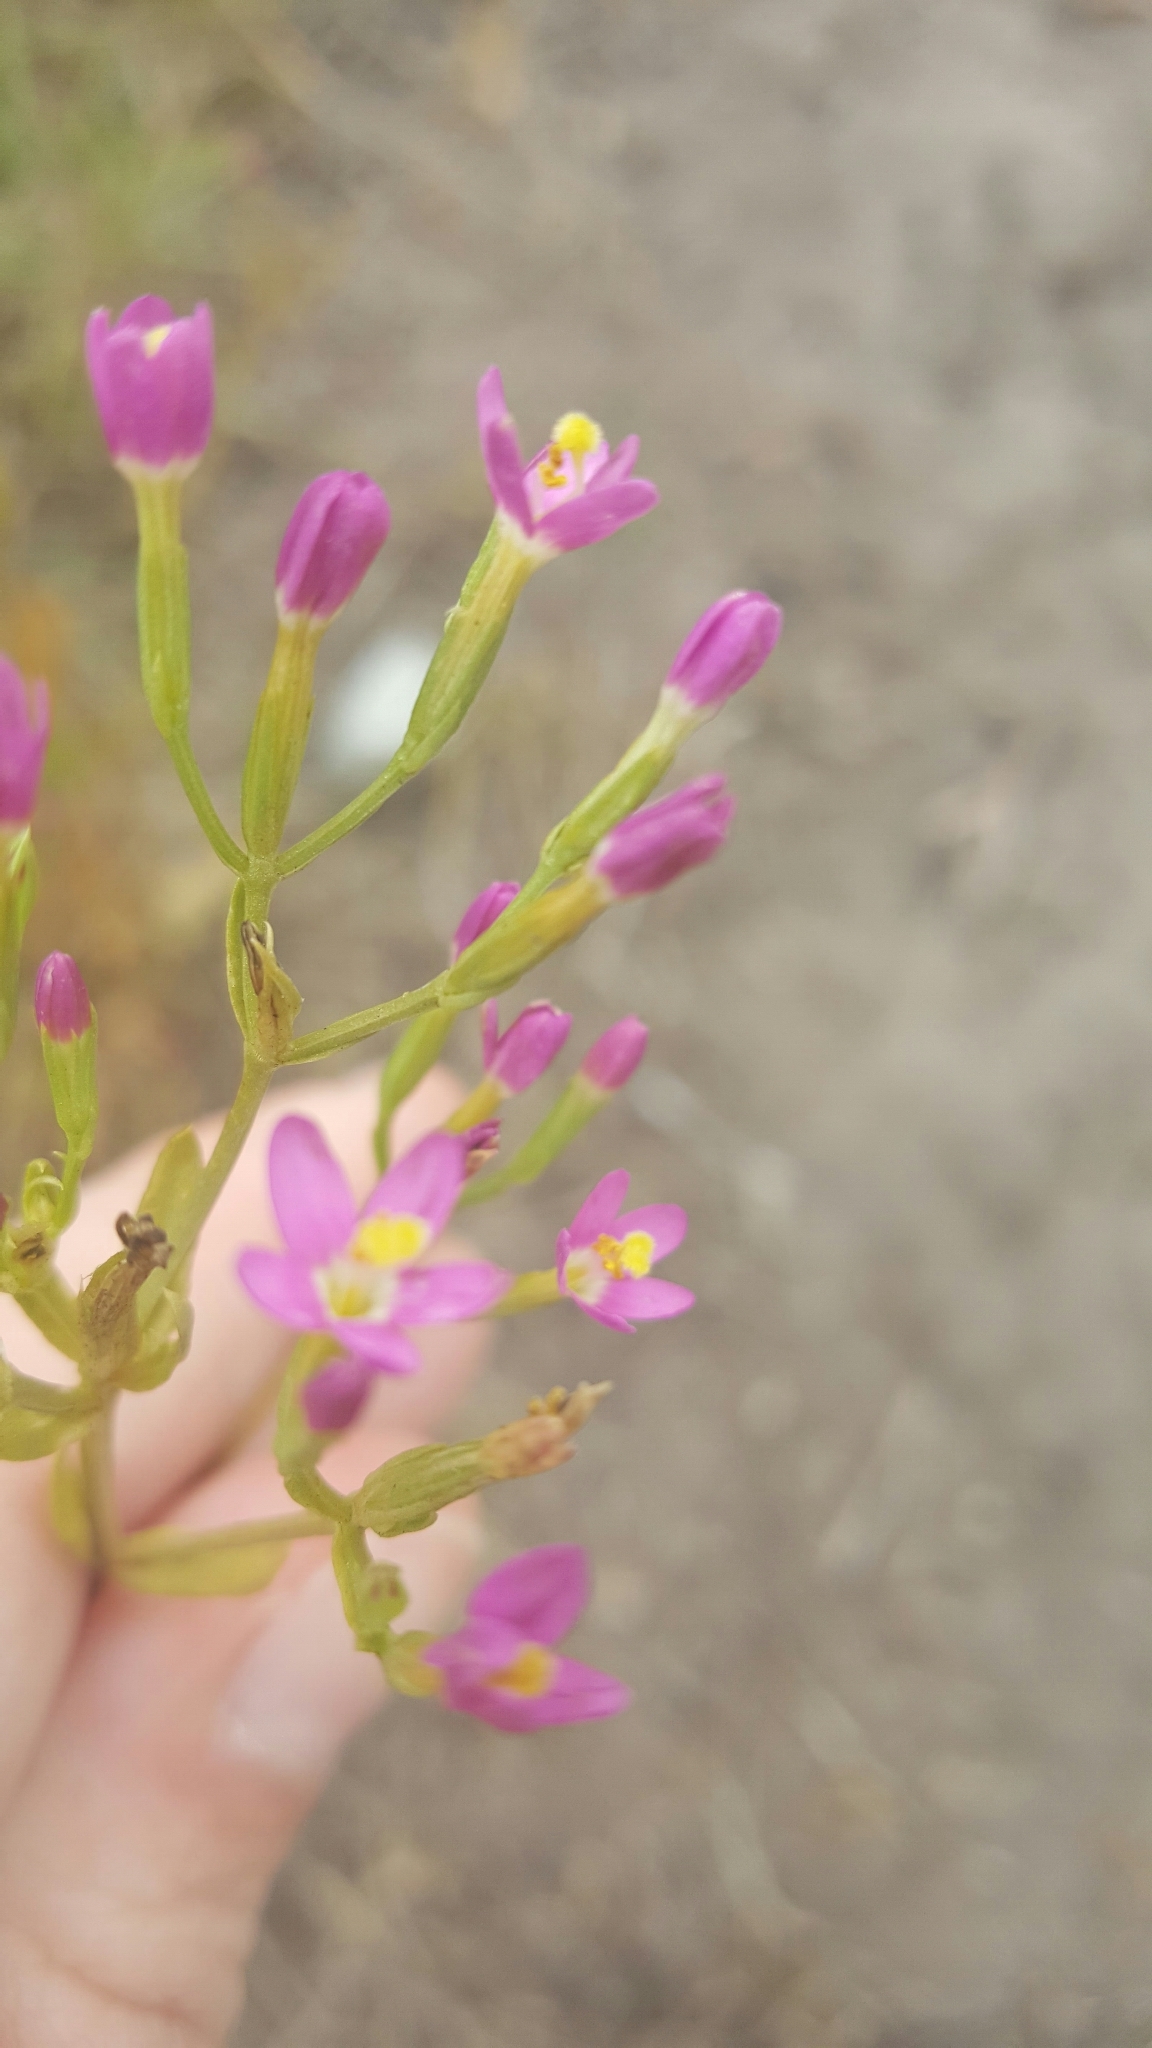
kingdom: Plantae
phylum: Tracheophyta
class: Magnoliopsida
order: Gentianales
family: Gentianaceae
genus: Zeltnera
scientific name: Zeltnera muhlenbergii
